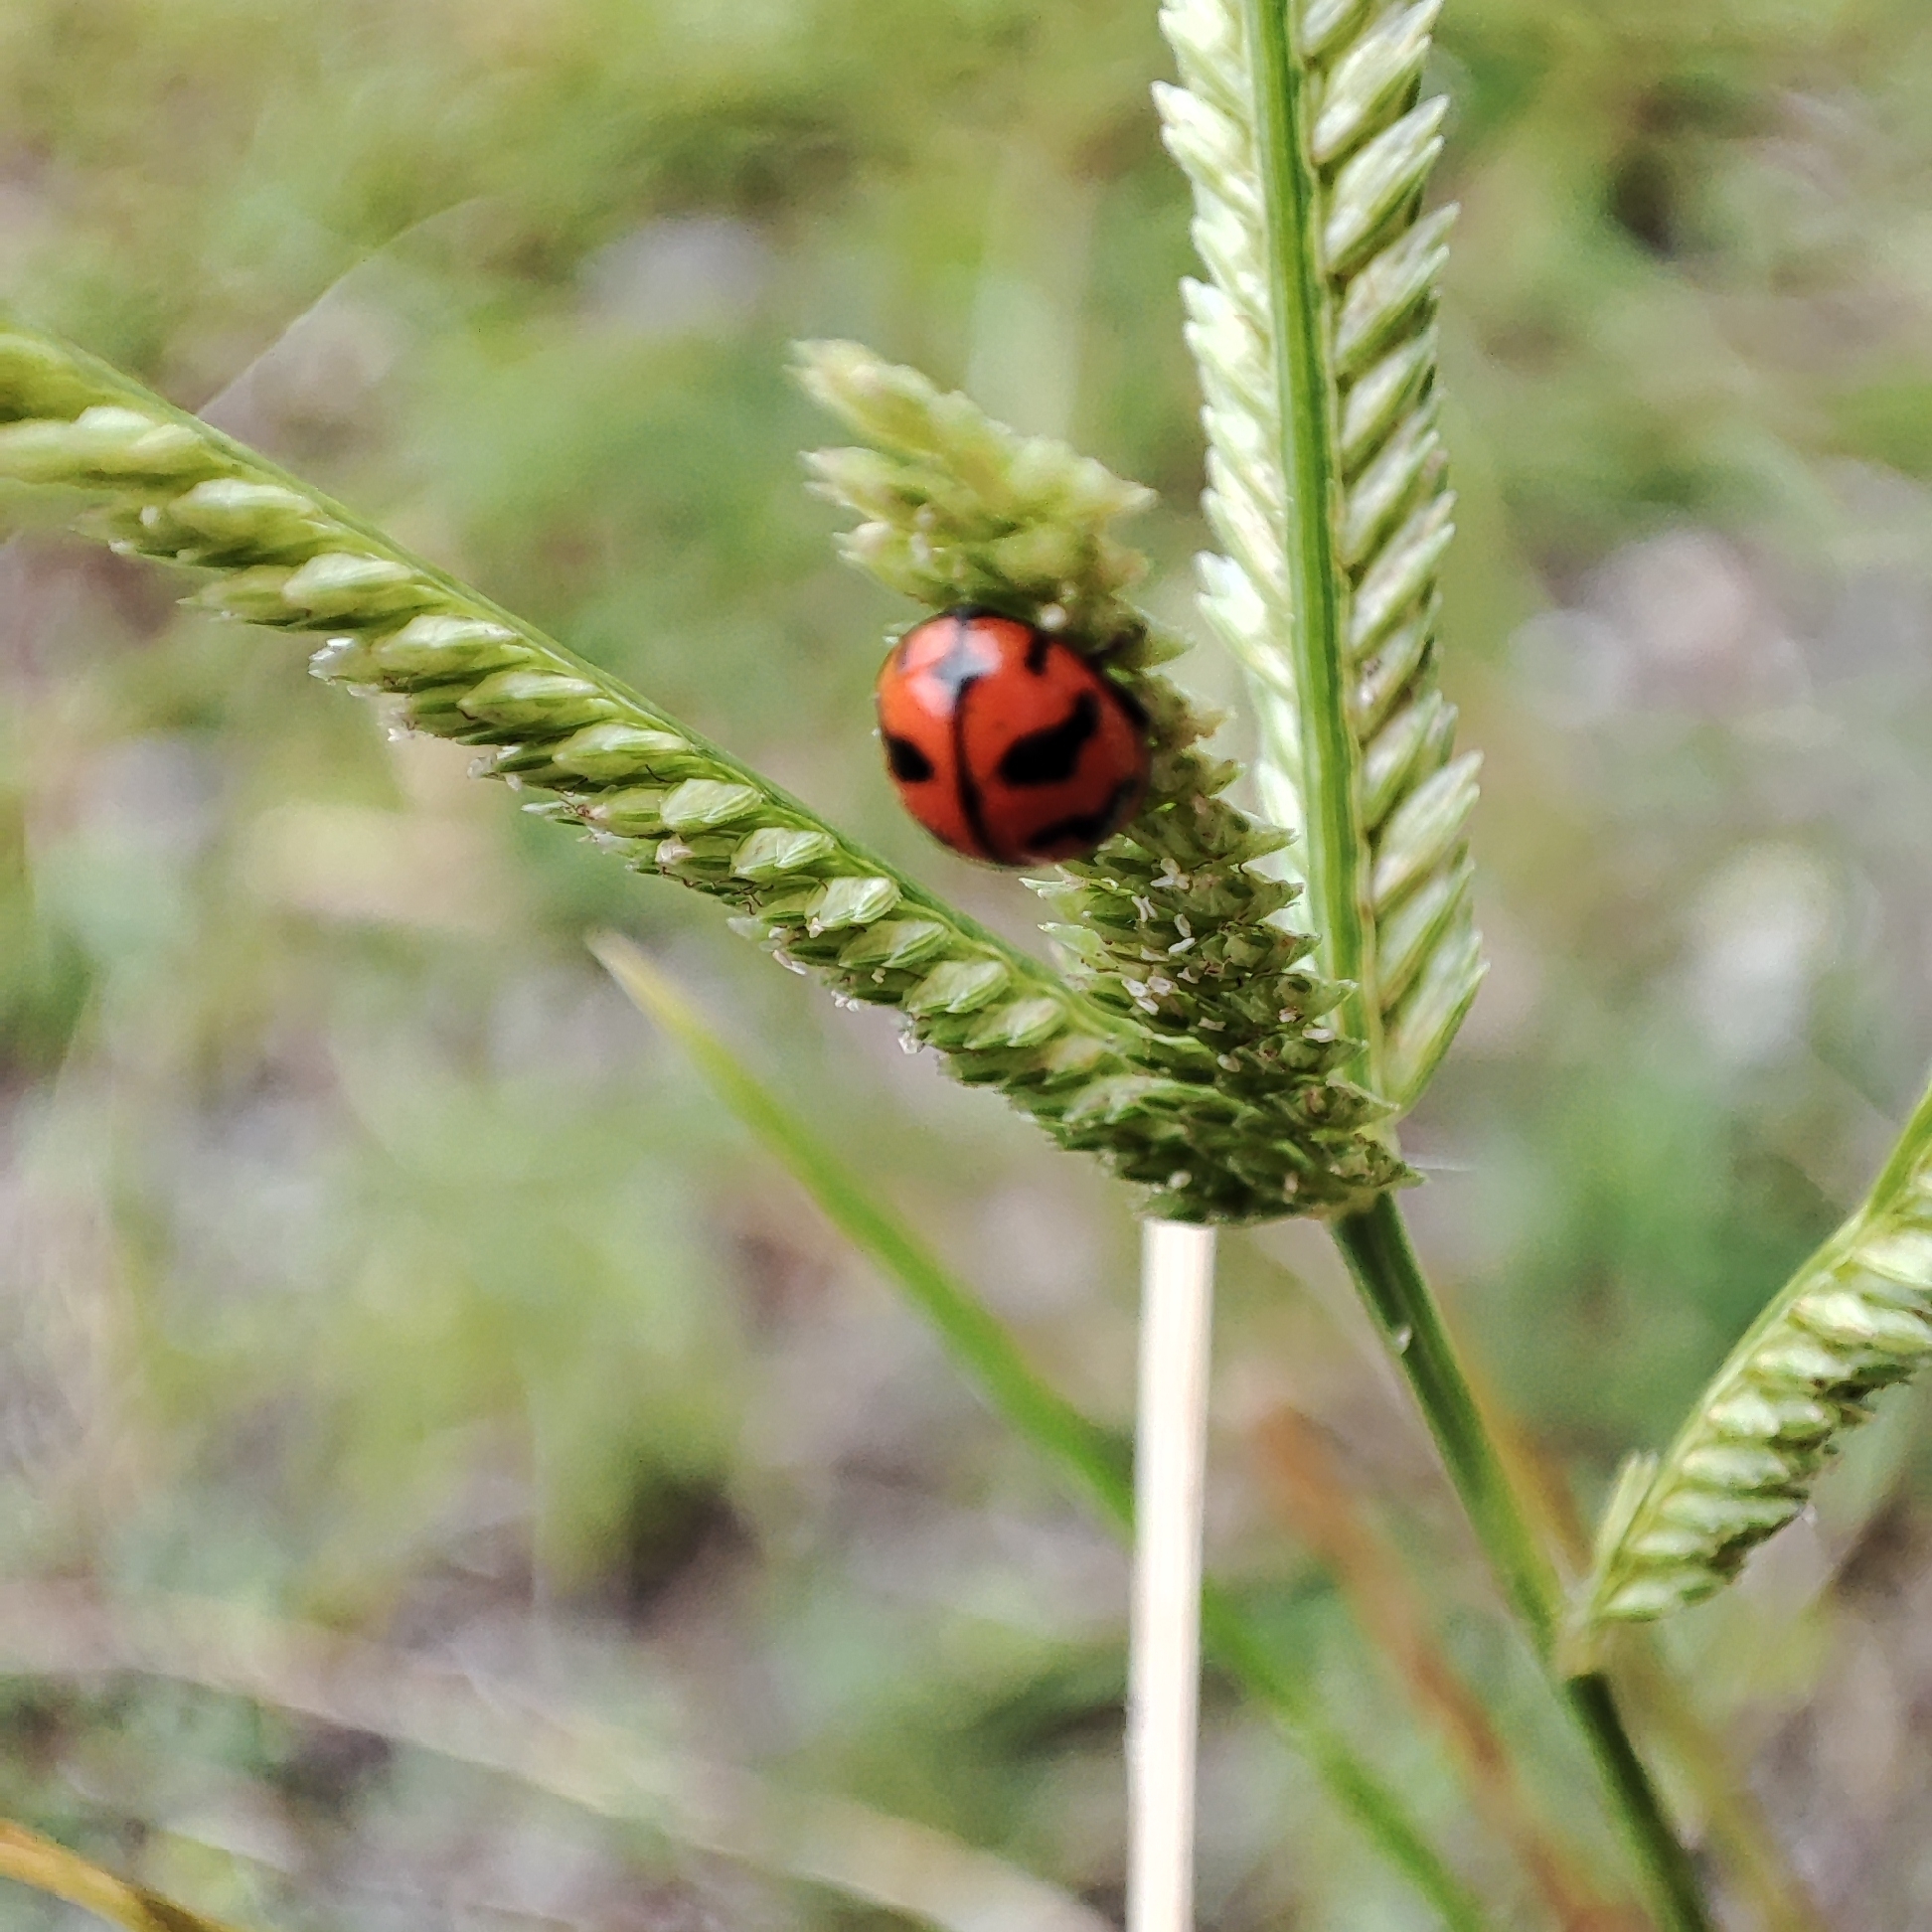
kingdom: Animalia
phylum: Arthropoda
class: Insecta
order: Coleoptera
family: Coccinellidae
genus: Coccinella
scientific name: Coccinella transversalis
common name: Transverse lady beetle
